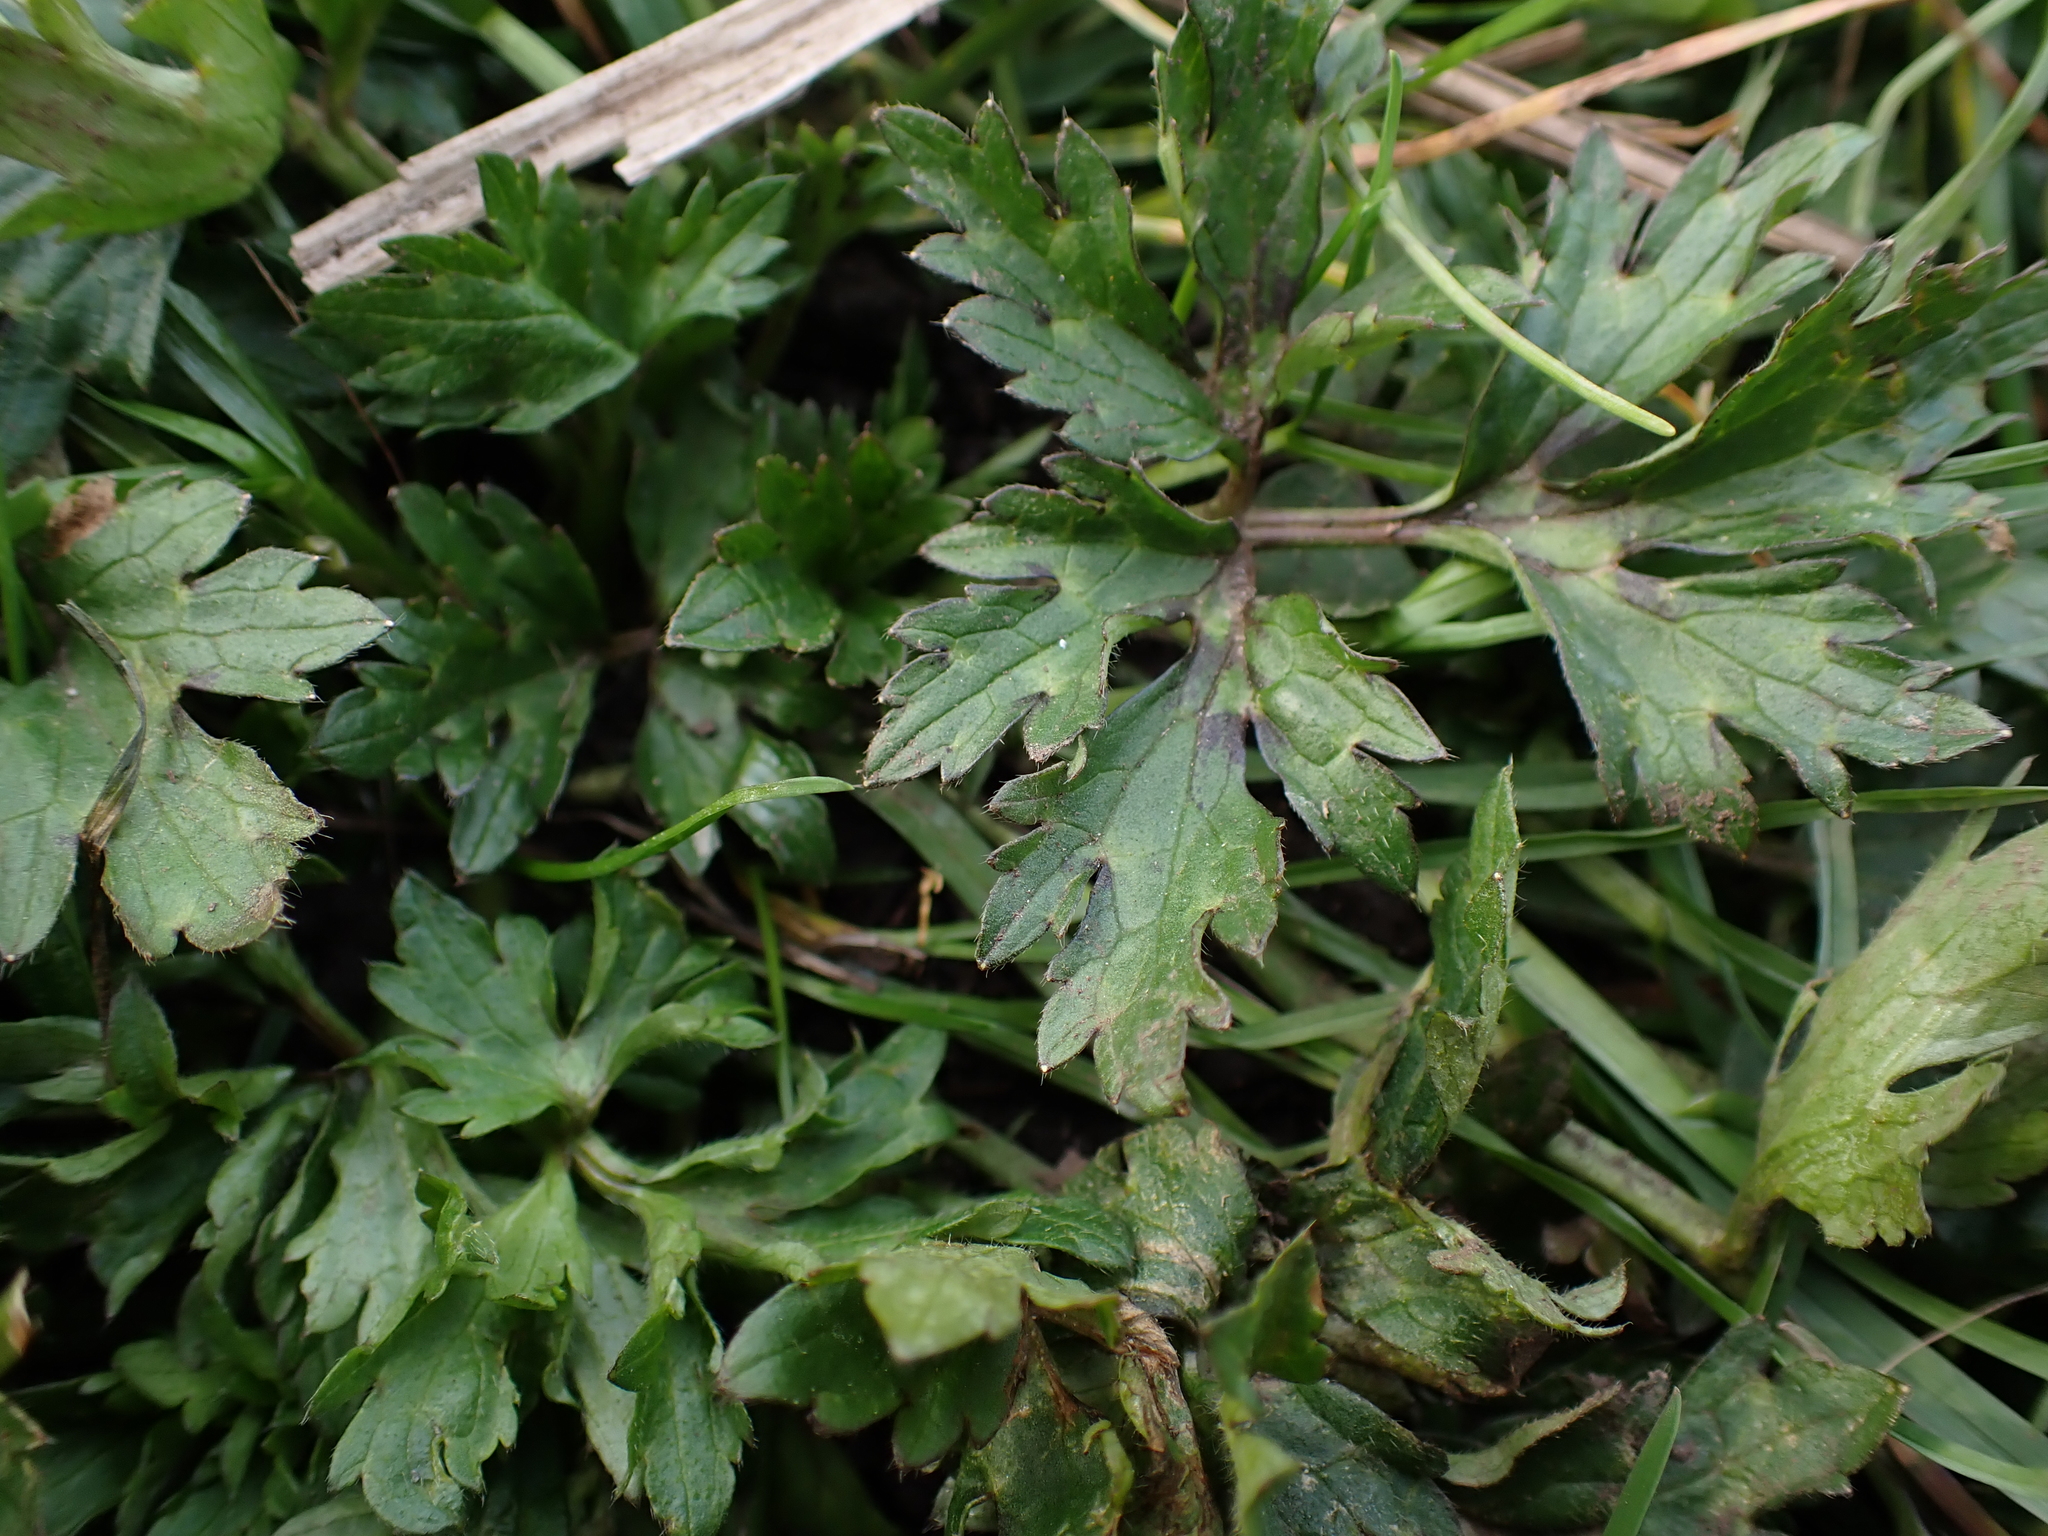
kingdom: Plantae
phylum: Tracheophyta
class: Magnoliopsida
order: Ranunculales
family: Ranunculaceae
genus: Ranunculus
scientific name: Ranunculus repens
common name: Creeping buttercup
